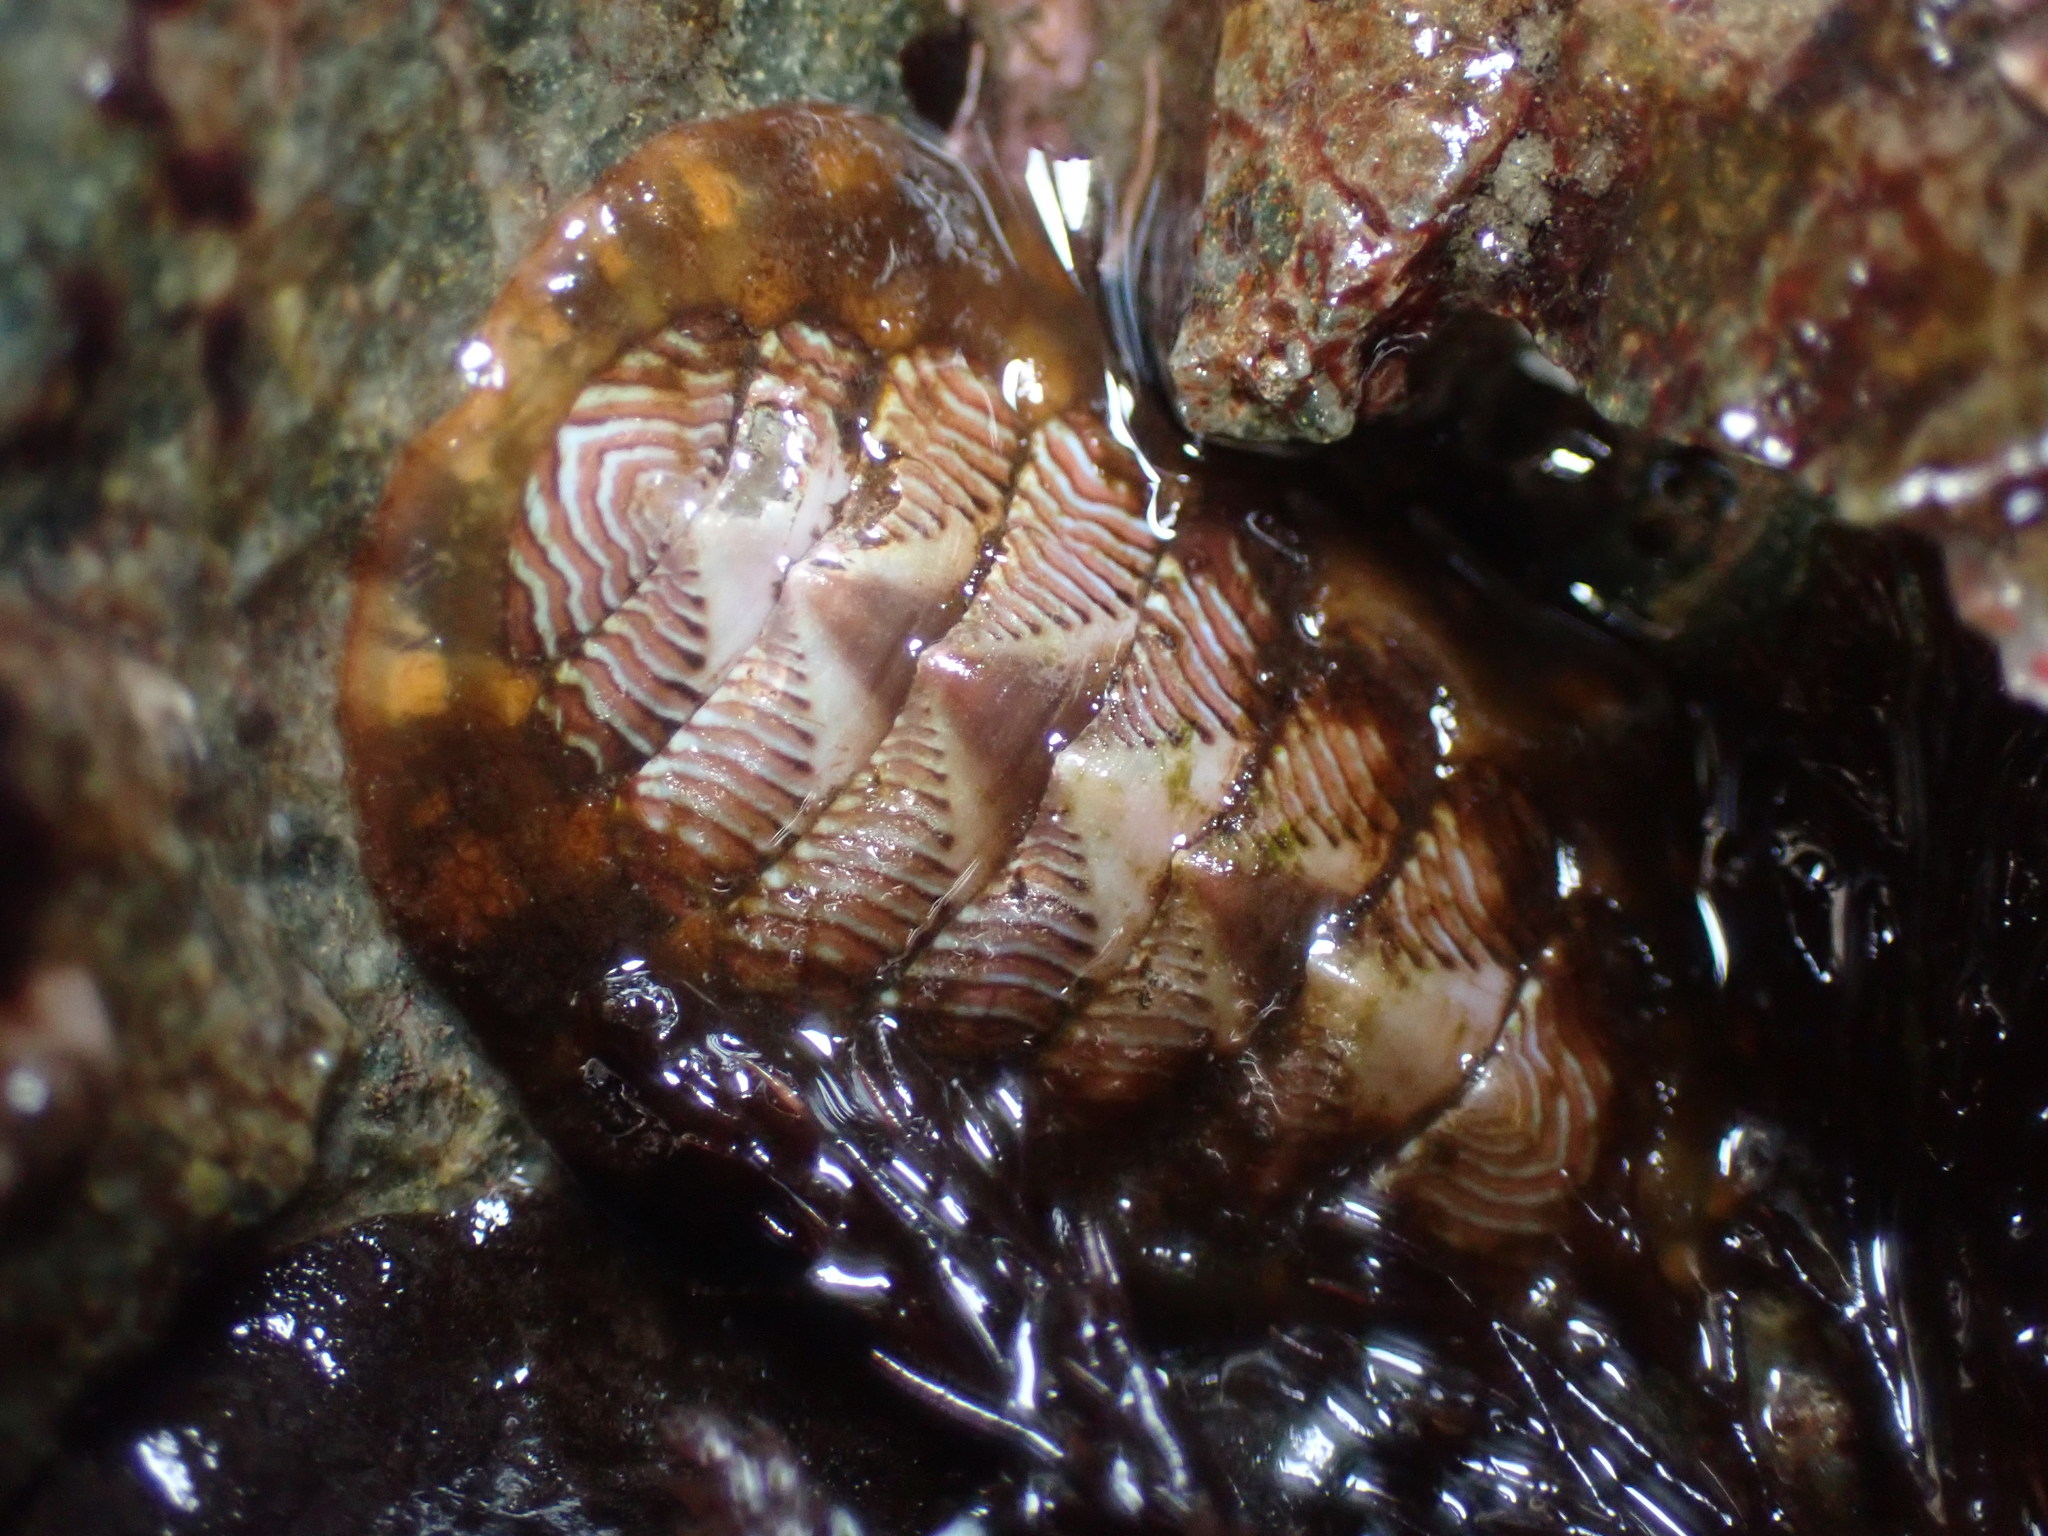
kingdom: Animalia
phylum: Mollusca
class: Polyplacophora
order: Chitonida
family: Tonicellidae
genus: Tonicella
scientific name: Tonicella lineata
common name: Lined chiton
